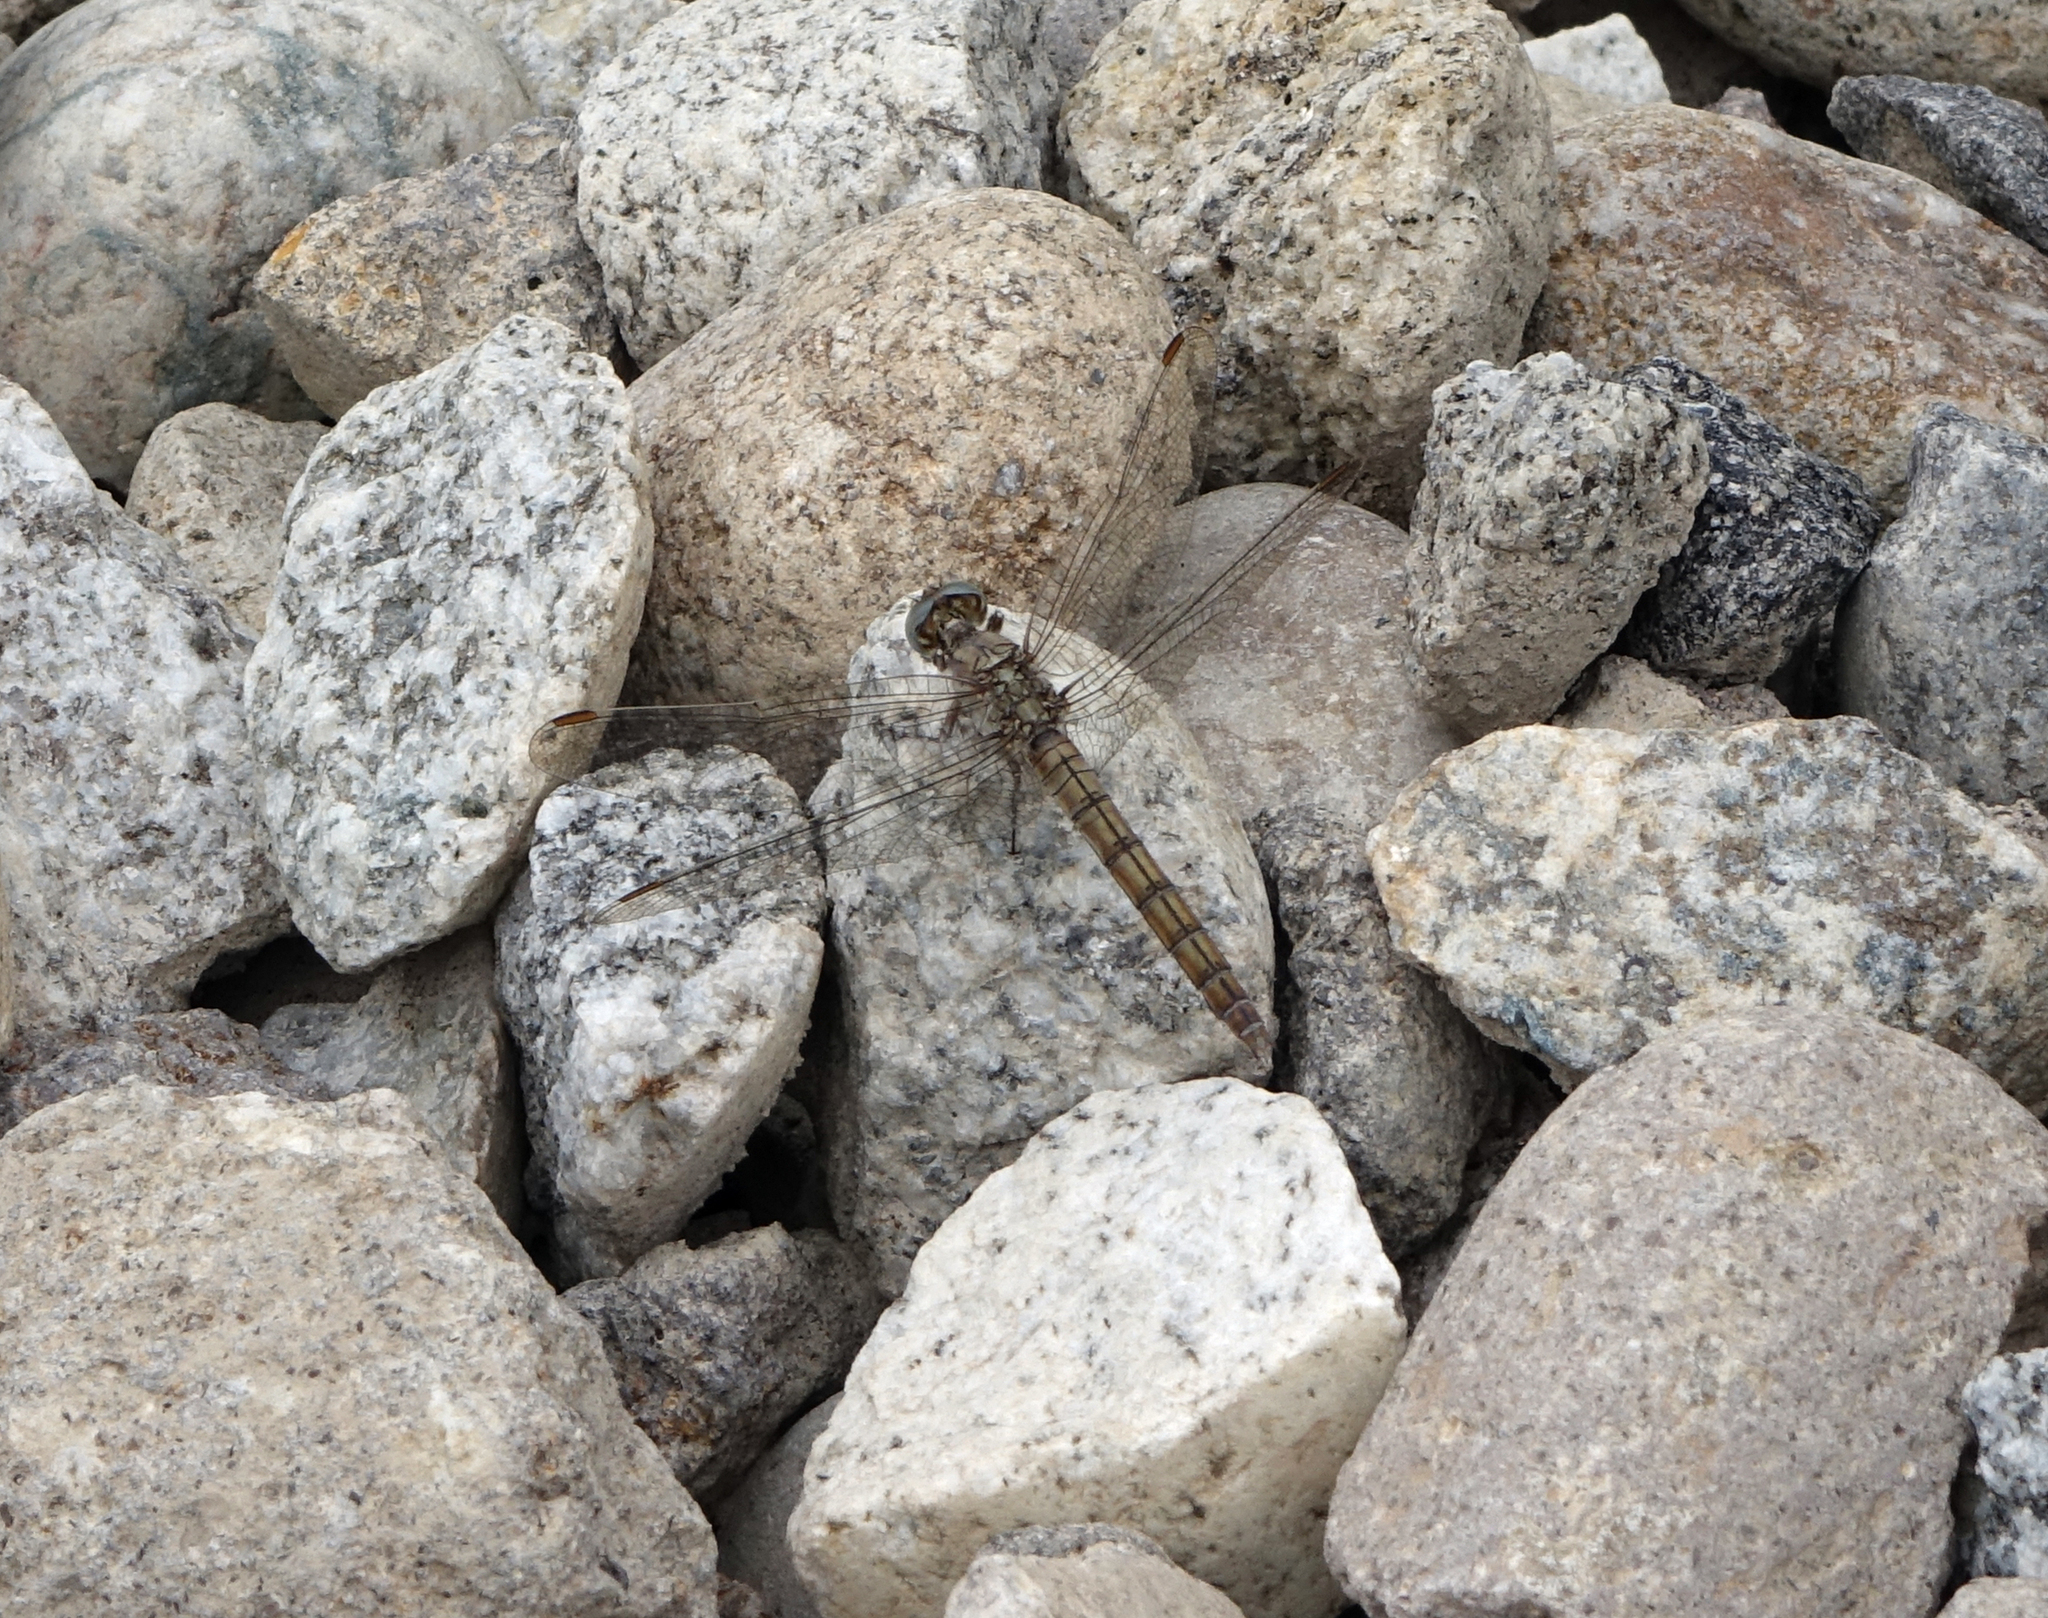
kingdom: Animalia
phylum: Arthropoda
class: Insecta
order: Odonata
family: Libellulidae
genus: Orthetrum
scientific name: Orthetrum brunneum
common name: Southern skimmer
